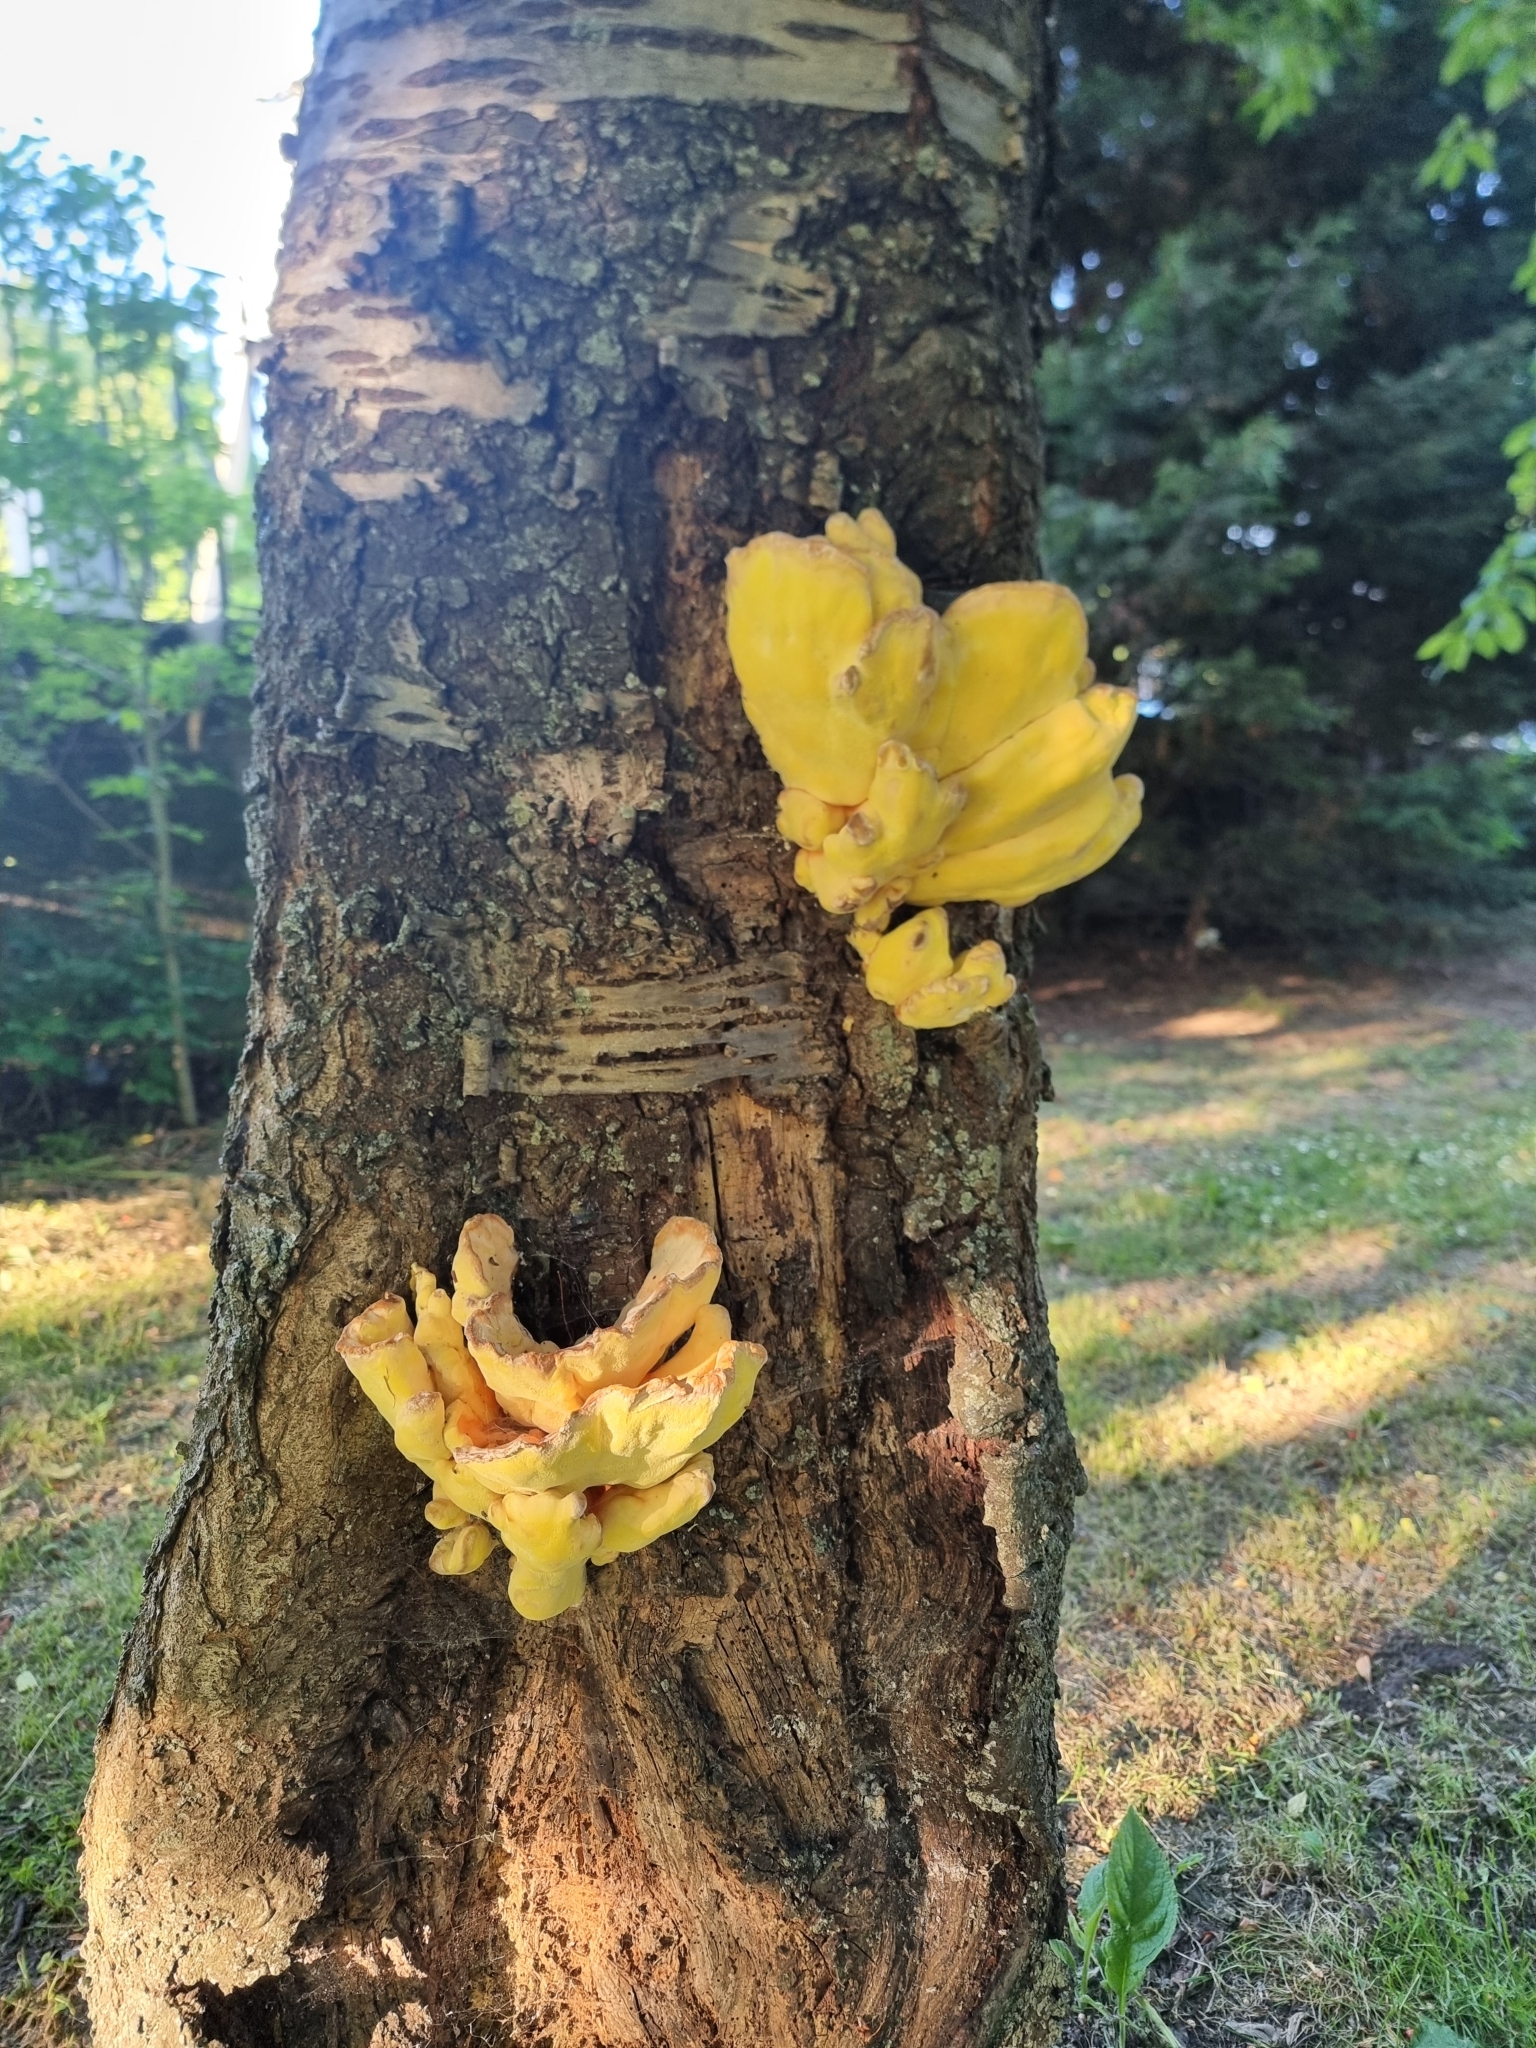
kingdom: Fungi
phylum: Basidiomycota
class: Agaricomycetes
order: Polyporales
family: Laetiporaceae
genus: Laetiporus
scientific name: Laetiporus sulphureus
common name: Chicken of the woods
